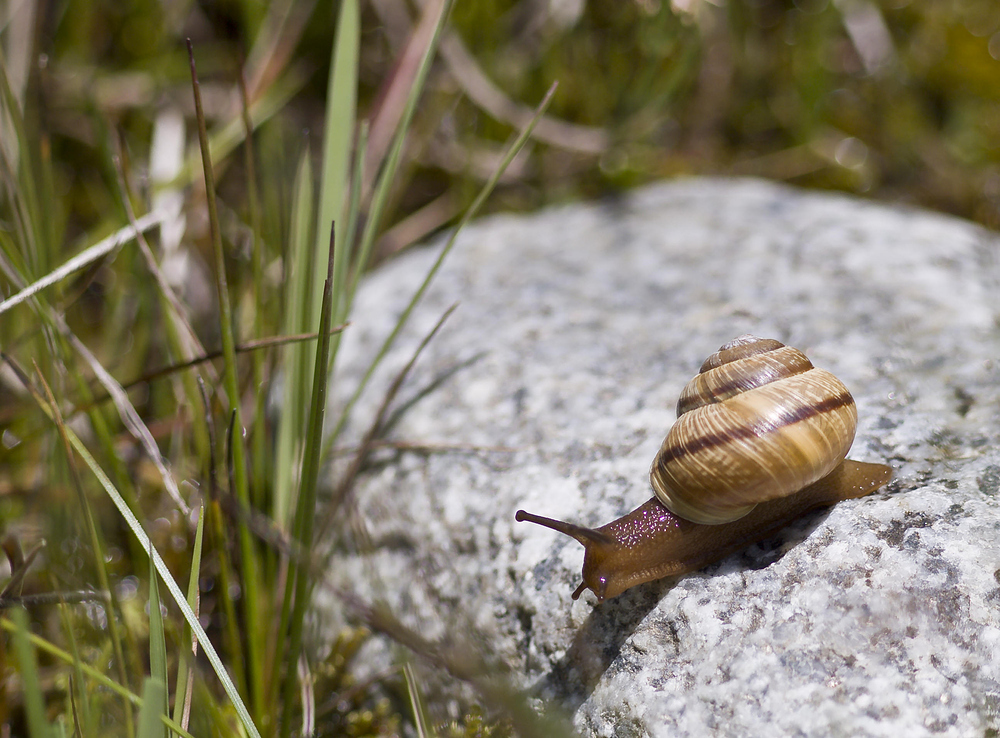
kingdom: Animalia
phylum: Mollusca
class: Gastropoda
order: Stylommatophora
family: Helicidae
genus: Arianta
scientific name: Arianta arbustorum
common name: Copse snail
